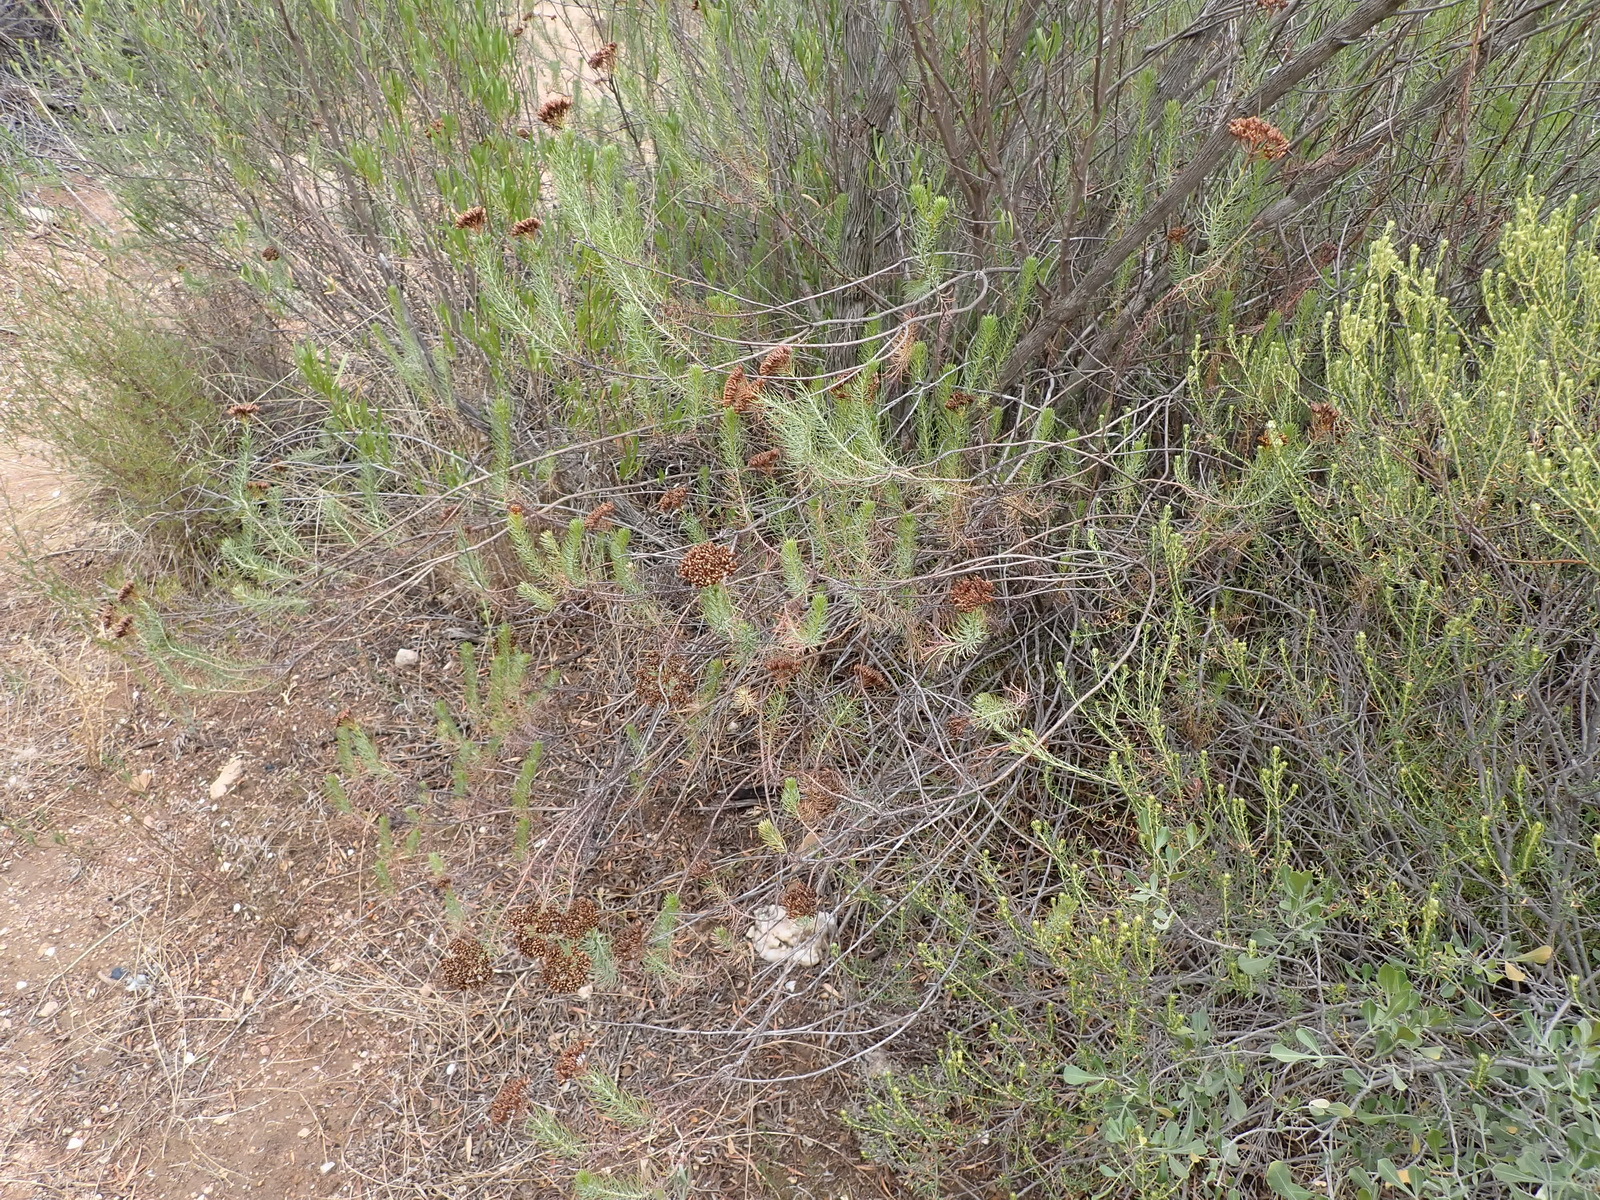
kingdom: Plantae
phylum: Tracheophyta
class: Magnoliopsida
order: Asterales
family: Asteraceae
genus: Athanasia
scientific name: Athanasia vestita
